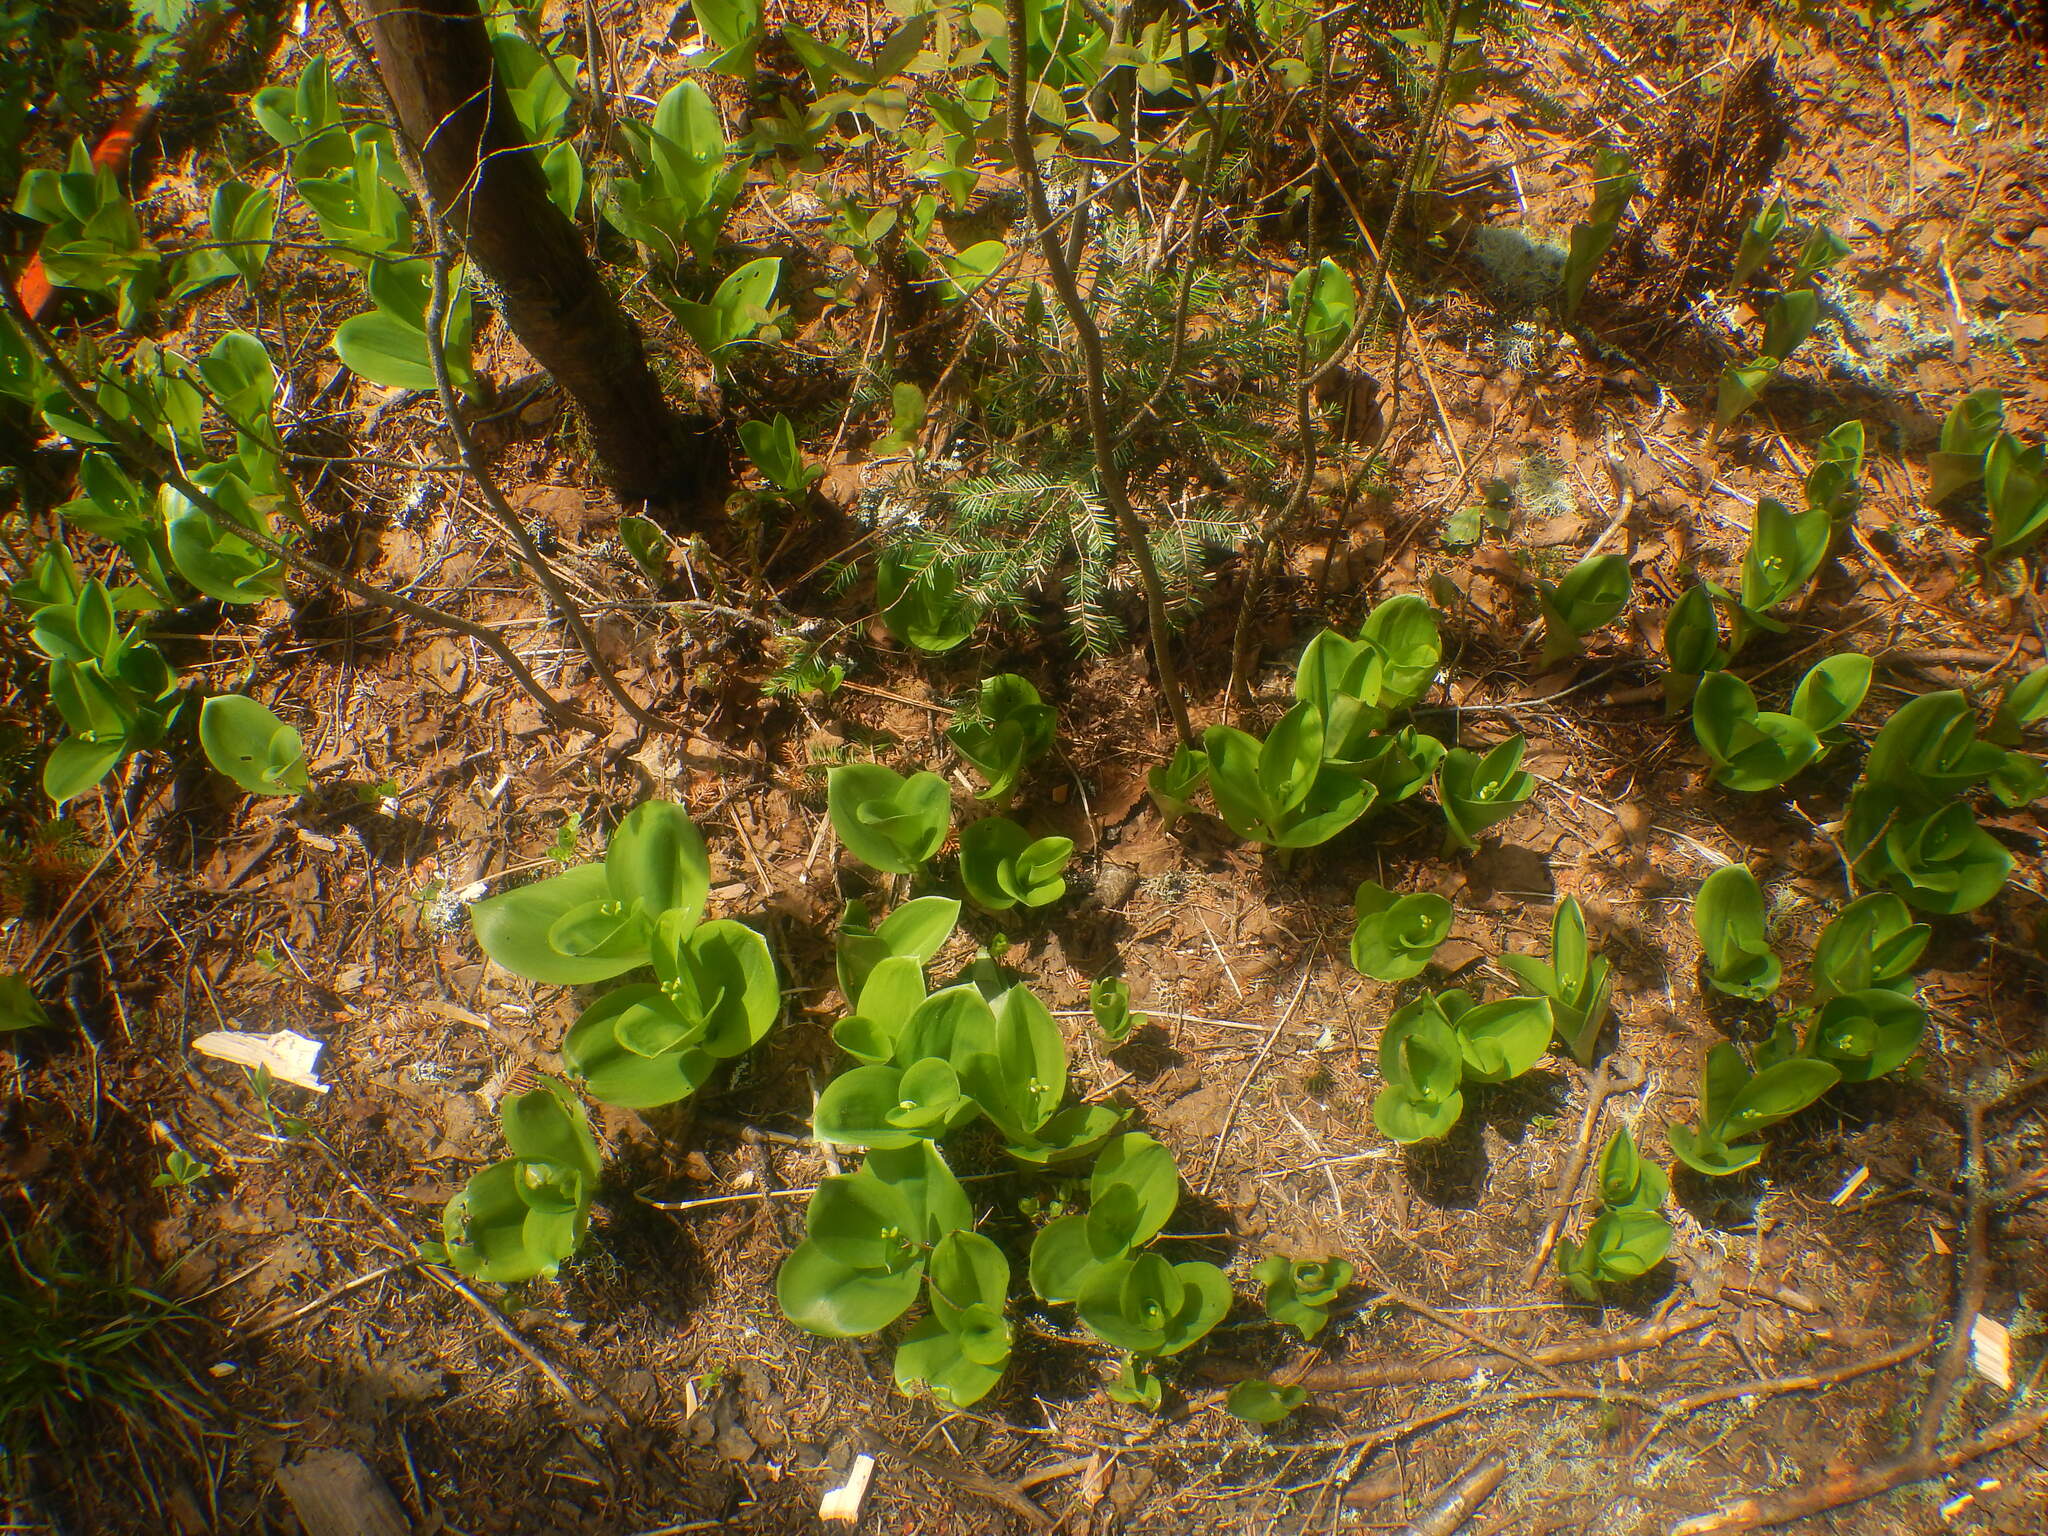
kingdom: Plantae
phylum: Tracheophyta
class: Liliopsida
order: Liliales
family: Liliaceae
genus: Clintonia
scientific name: Clintonia borealis
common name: Yellow clintonia
